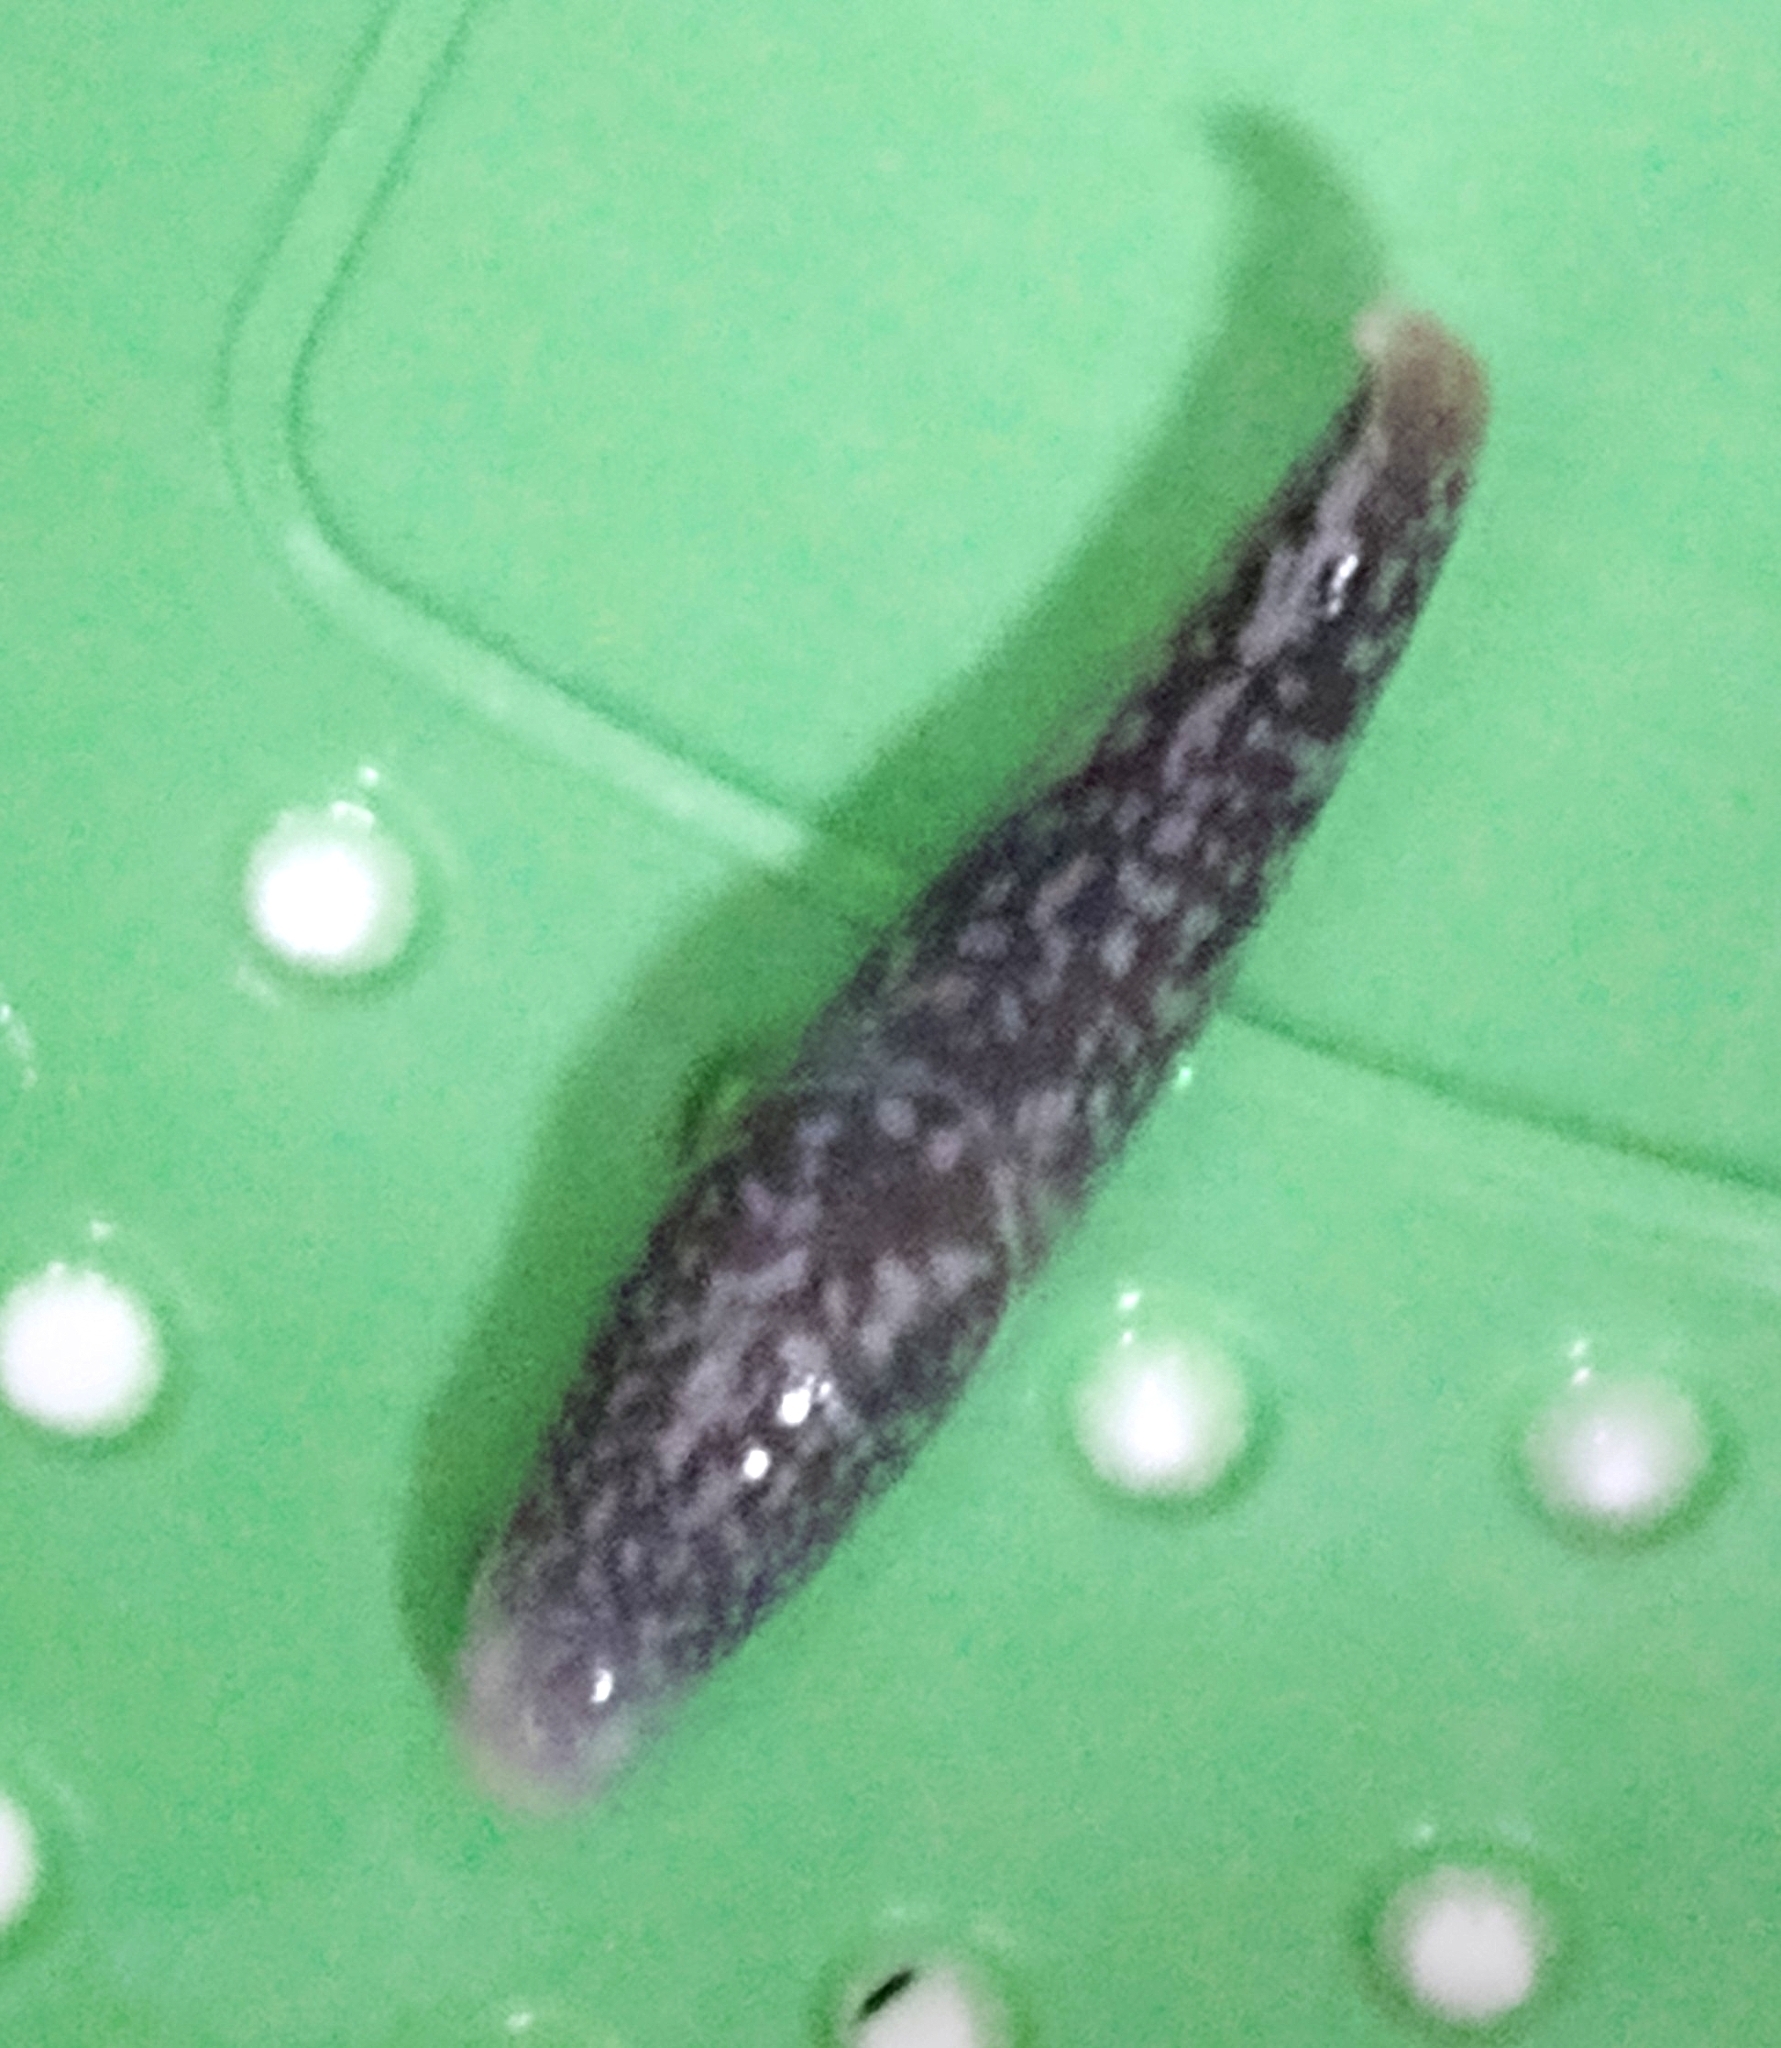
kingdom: Animalia
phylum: Mollusca
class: Gastropoda
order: Stylommatophora
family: Limacidae
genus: Limacus
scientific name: Limacus flavus
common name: Yellow gardenslug
